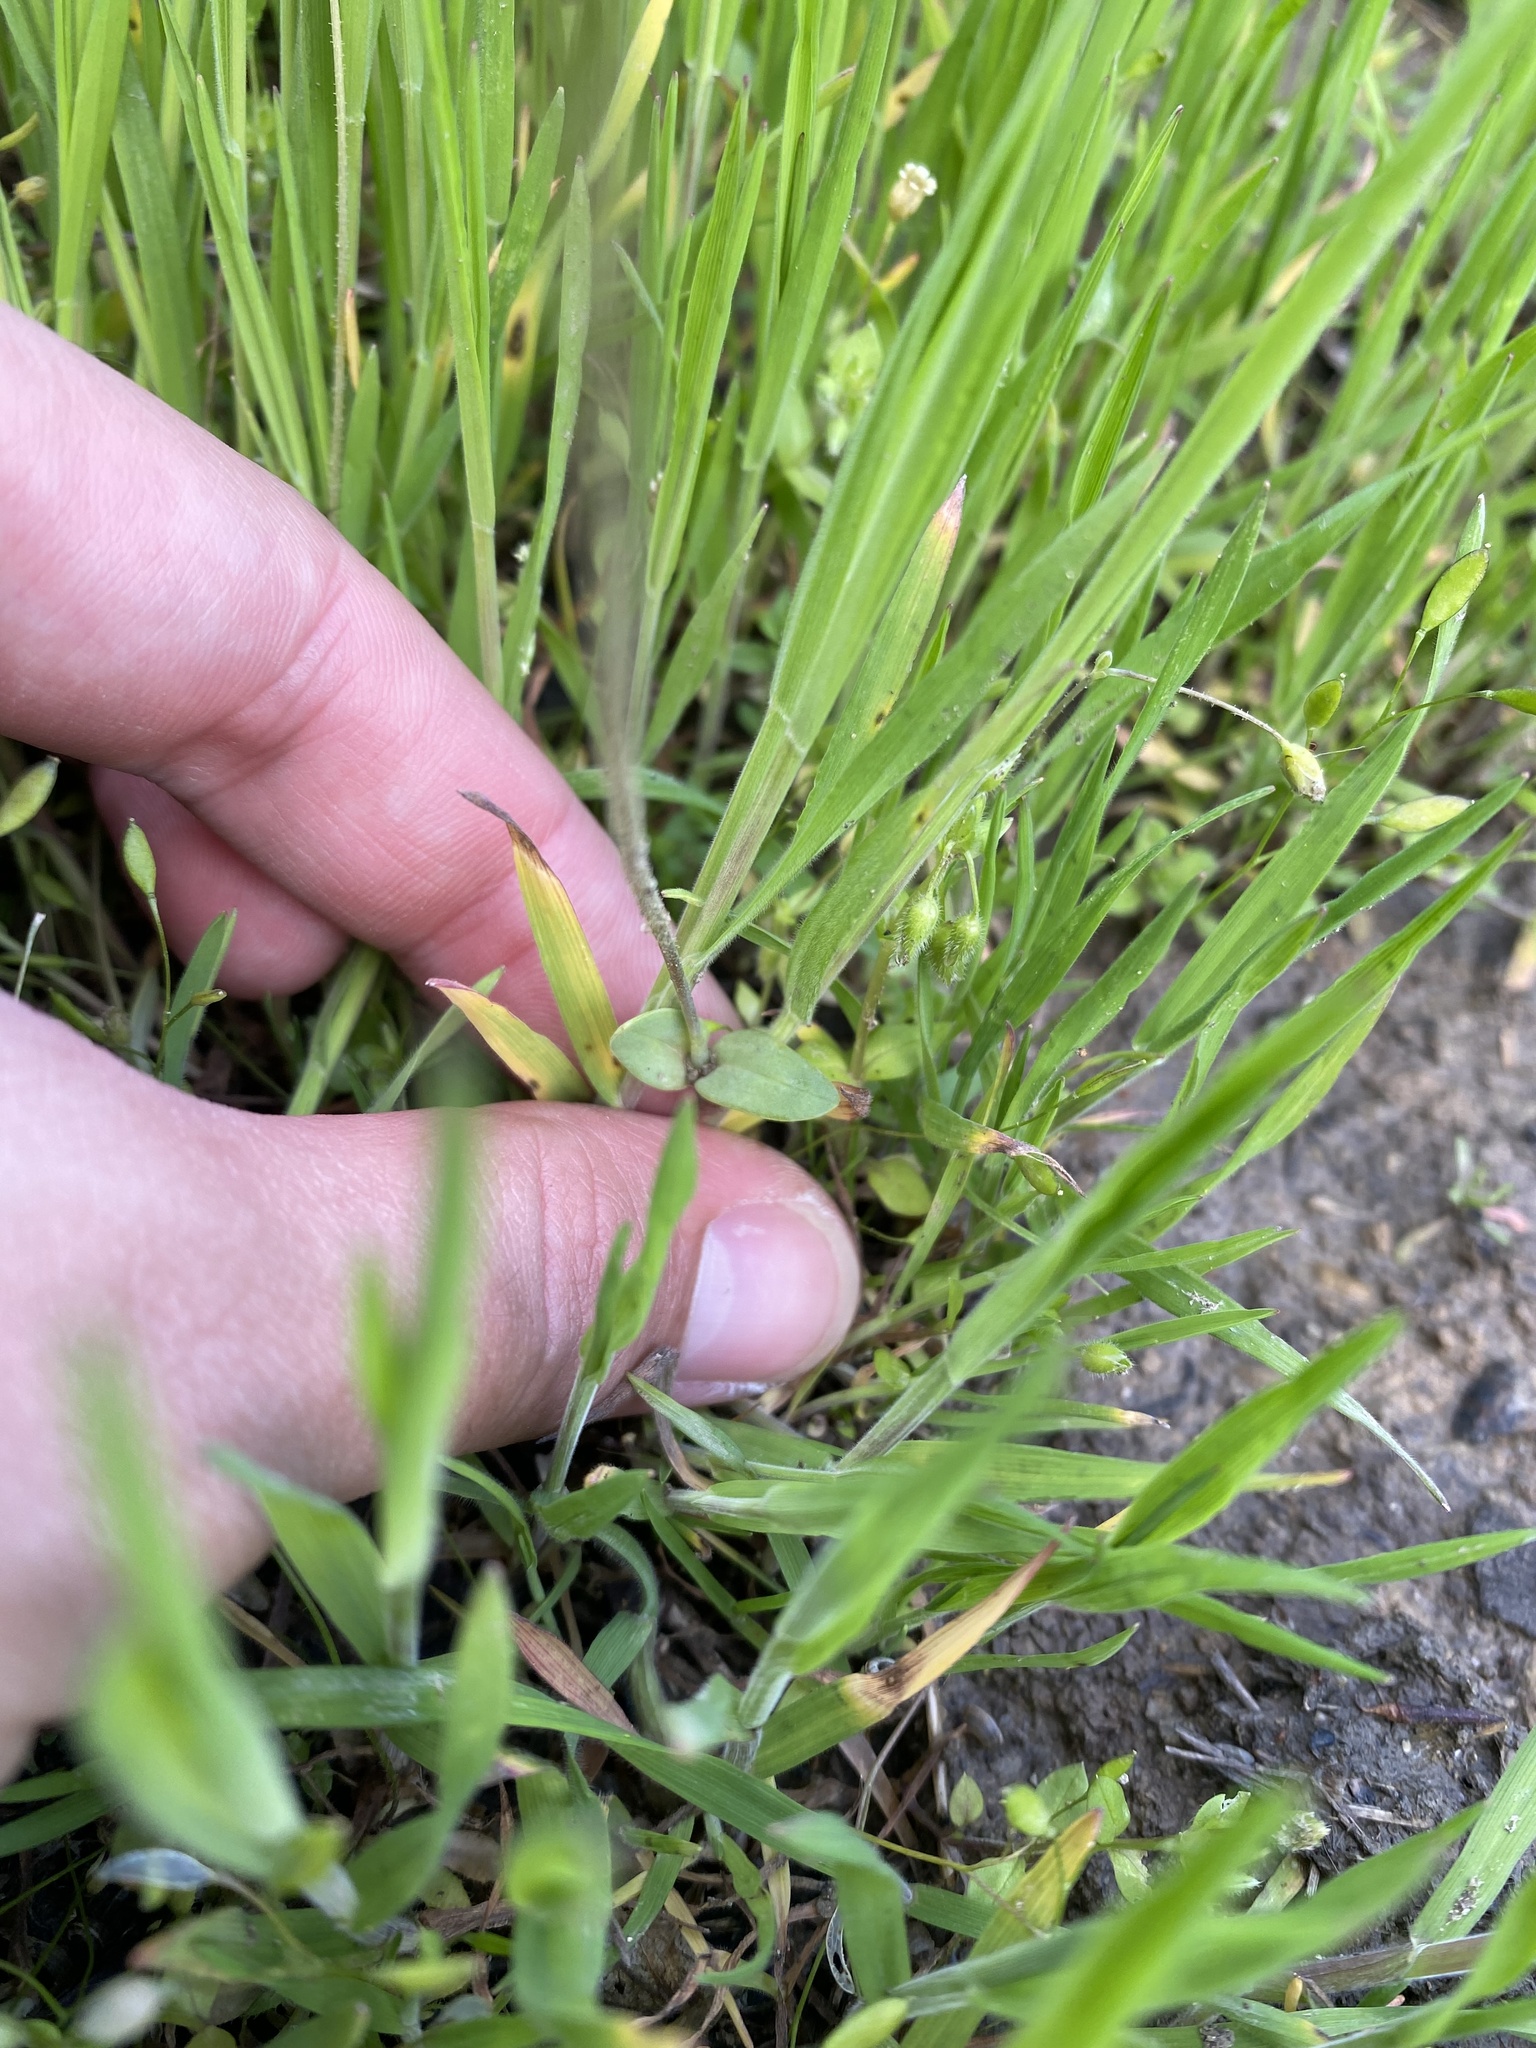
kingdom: Plantae
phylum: Tracheophyta
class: Magnoliopsida
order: Caryophyllales
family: Caryophyllaceae
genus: Holosteum
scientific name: Holosteum umbellatum
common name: Jagged chickweed
